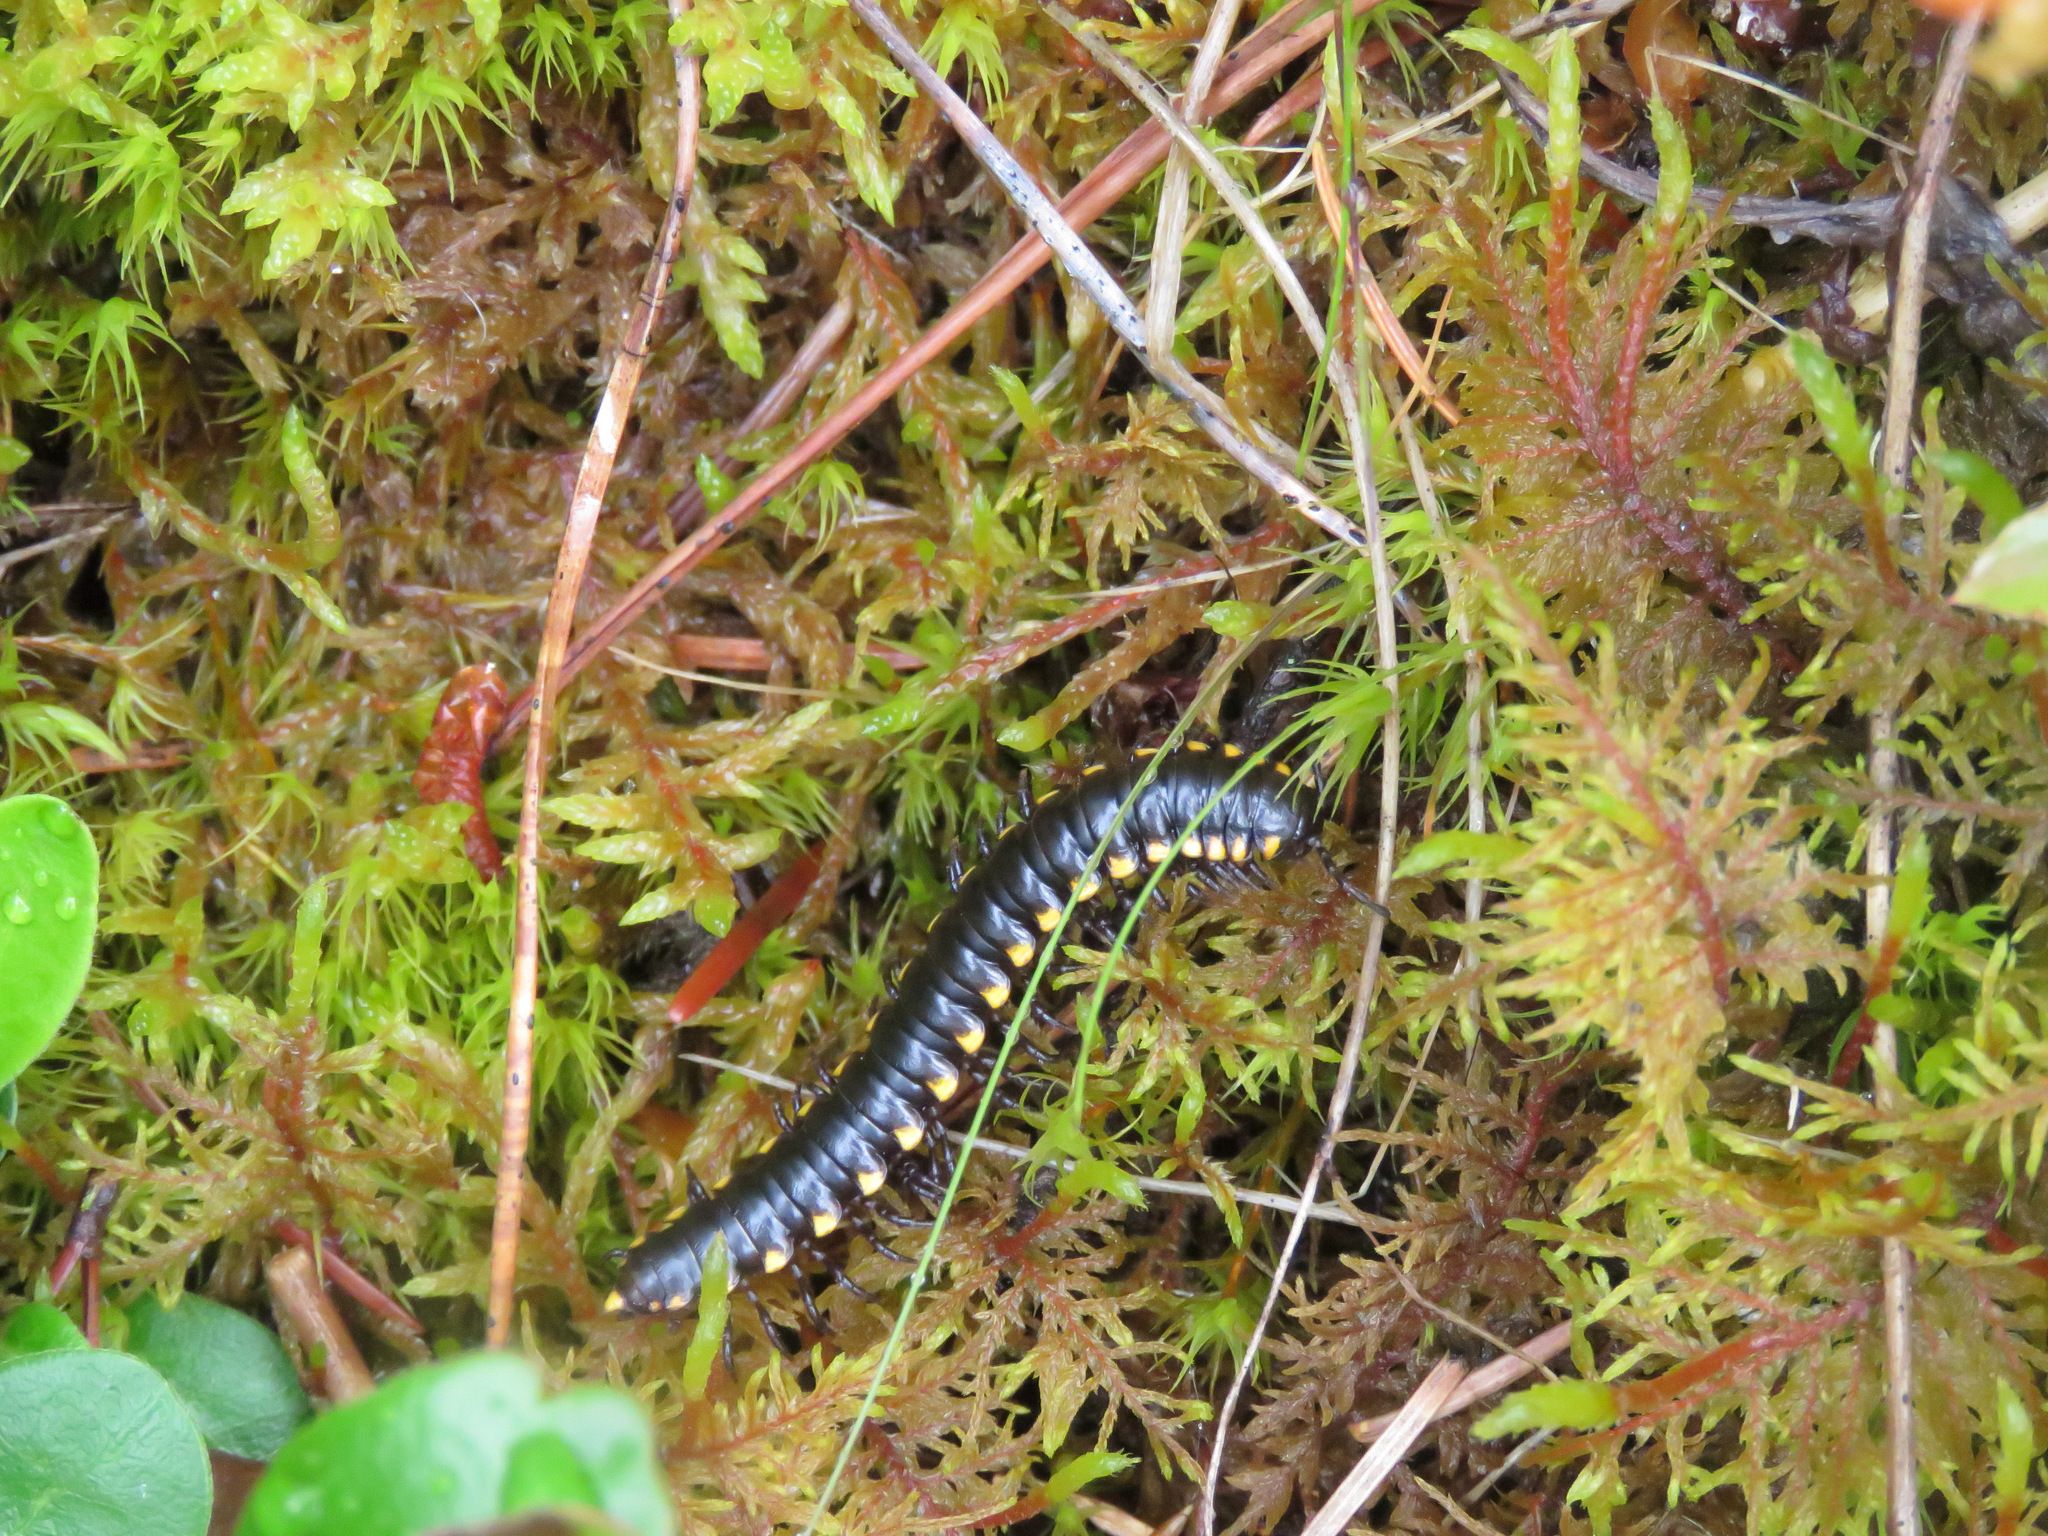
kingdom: Animalia
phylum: Arthropoda
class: Diplopoda
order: Polydesmida
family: Xystodesmidae
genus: Harpaphe
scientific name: Harpaphe haydeniana
